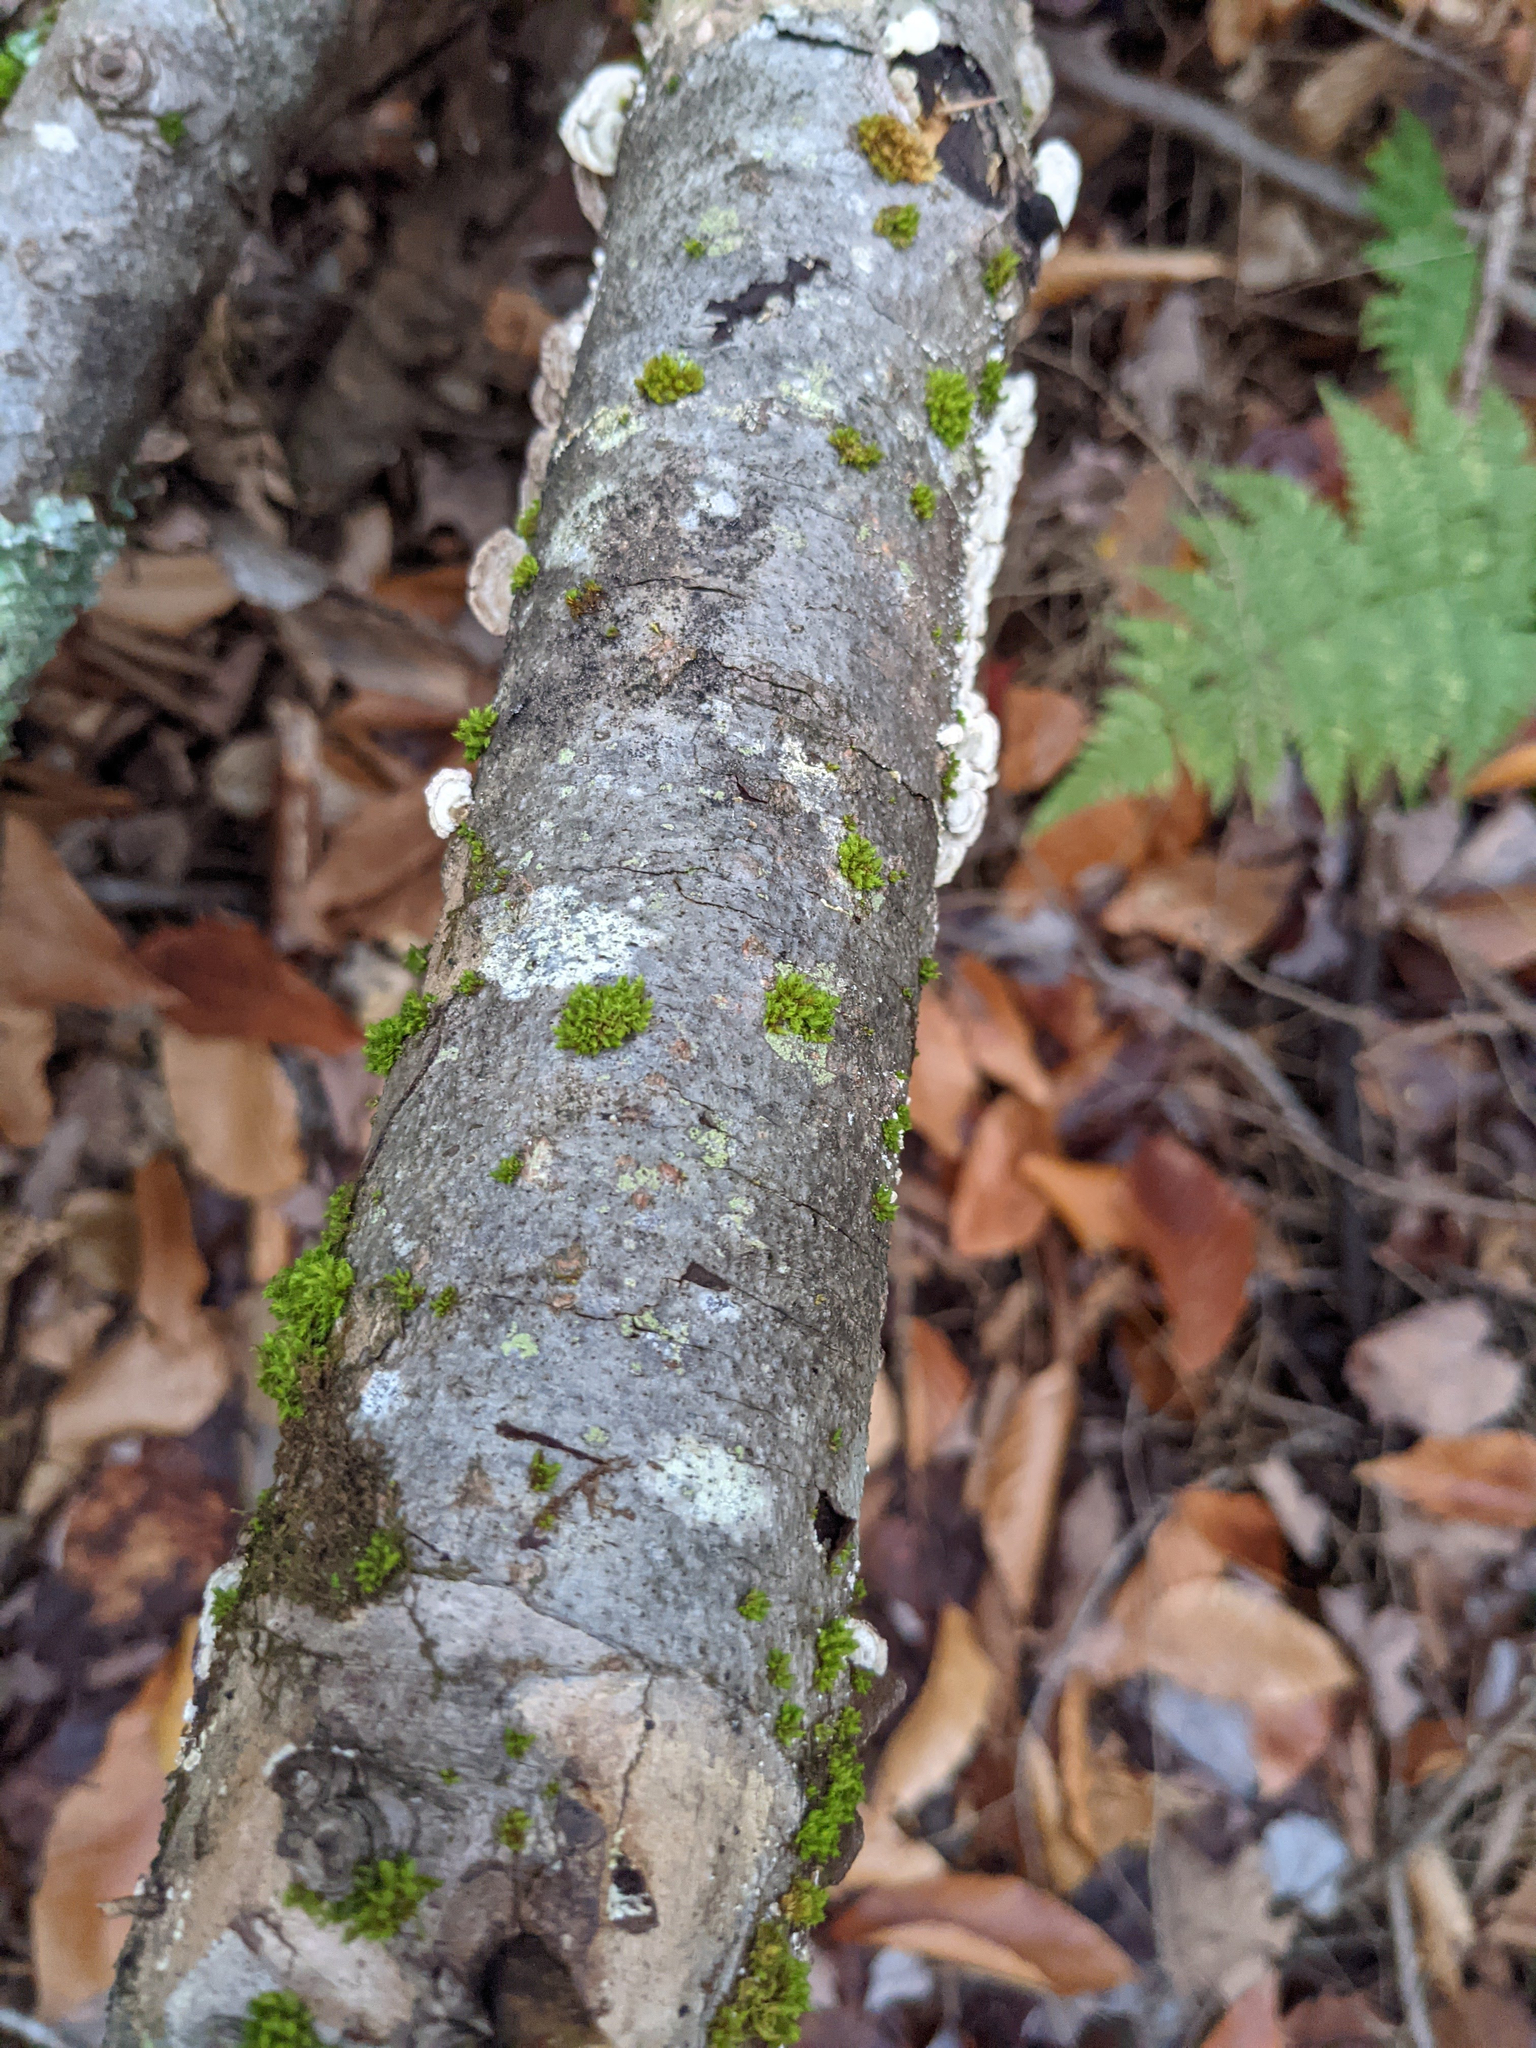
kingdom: Plantae
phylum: Bryophyta
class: Bryopsida
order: Orthotrichales
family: Orthotrichaceae
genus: Ulota
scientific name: Ulota crispa
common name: Crisped pincushion moss
